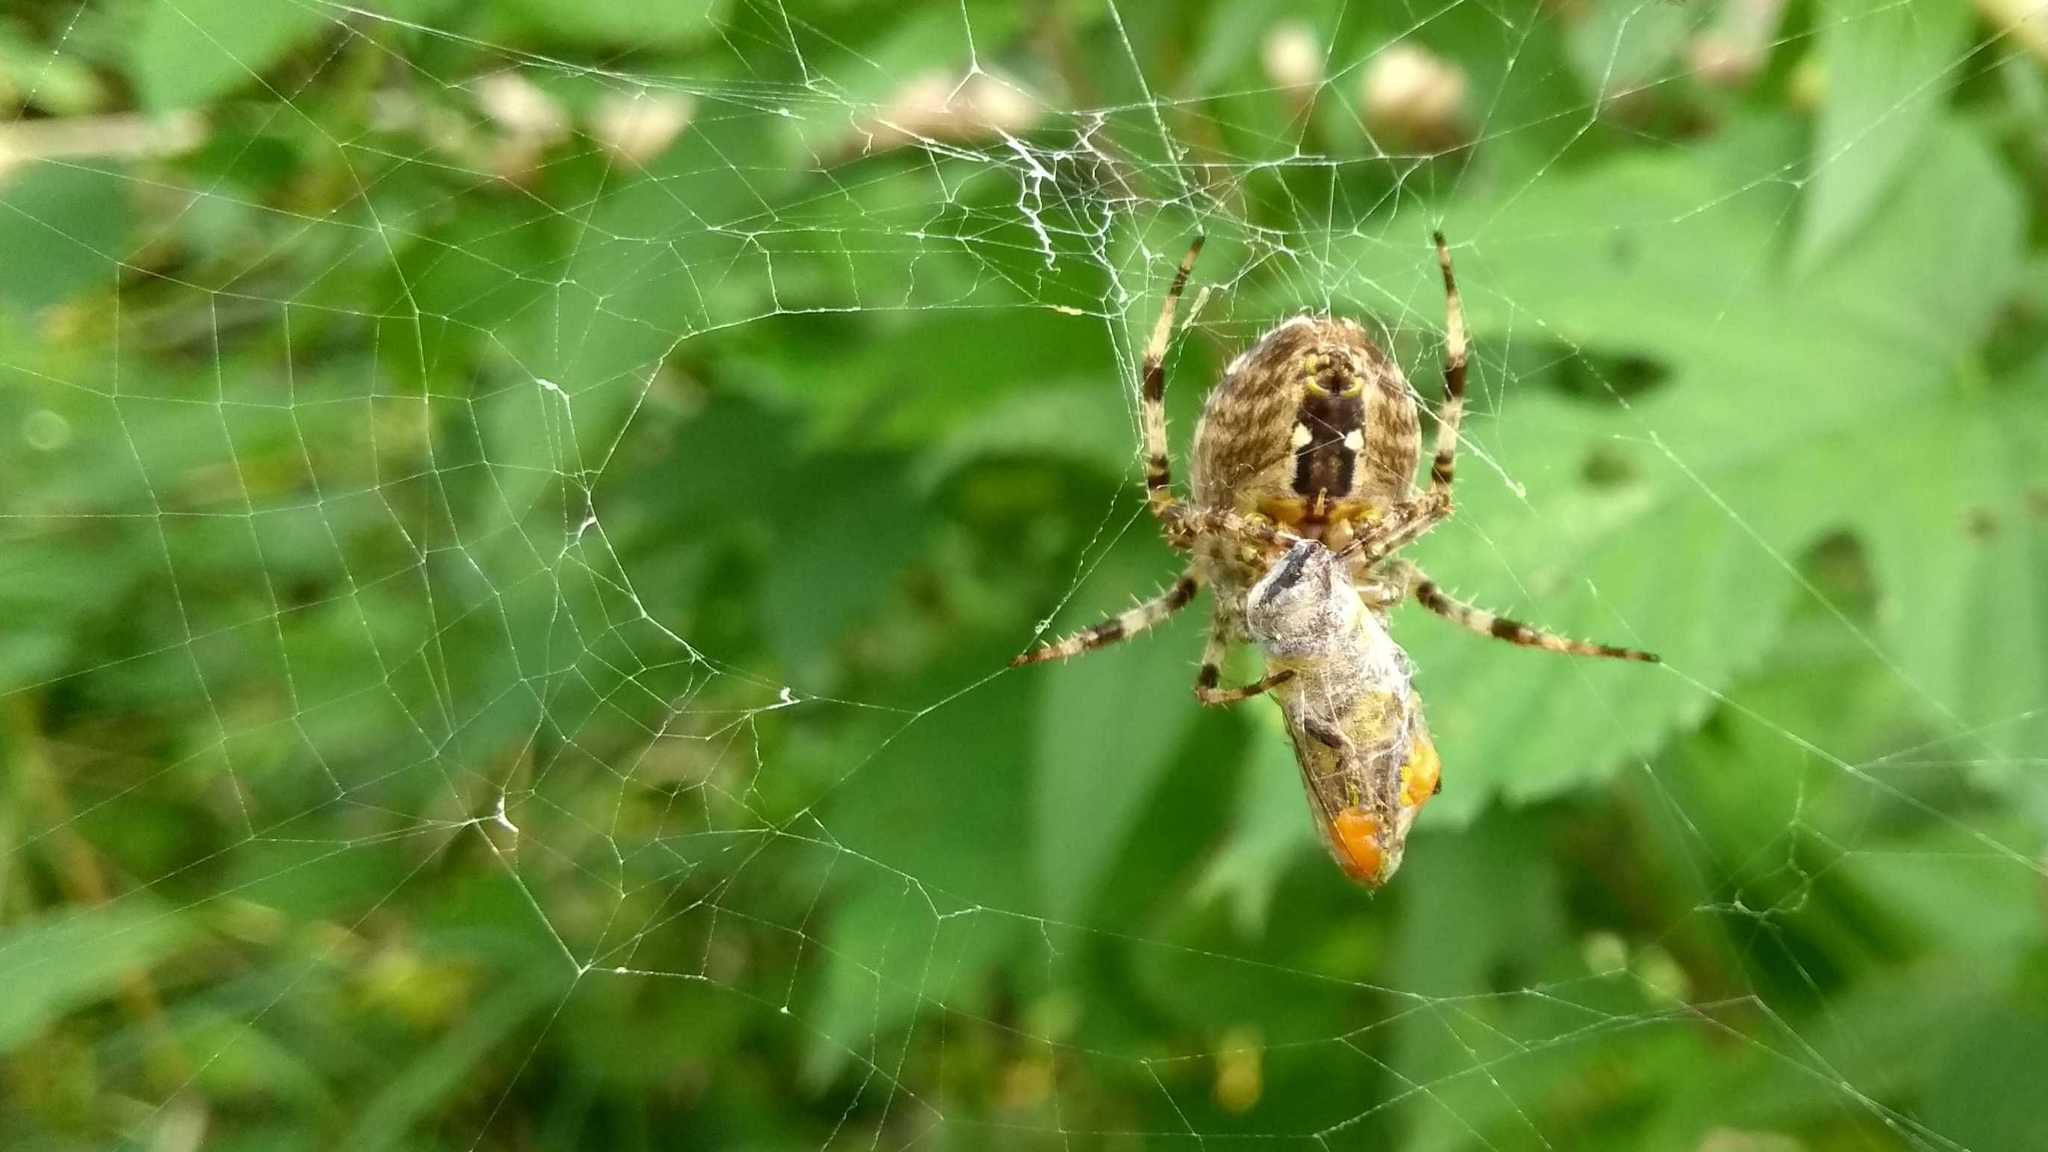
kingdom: Animalia
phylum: Arthropoda
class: Arachnida
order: Araneae
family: Araneidae
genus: Araneus
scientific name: Araneus diadematus
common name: Cross orbweaver
